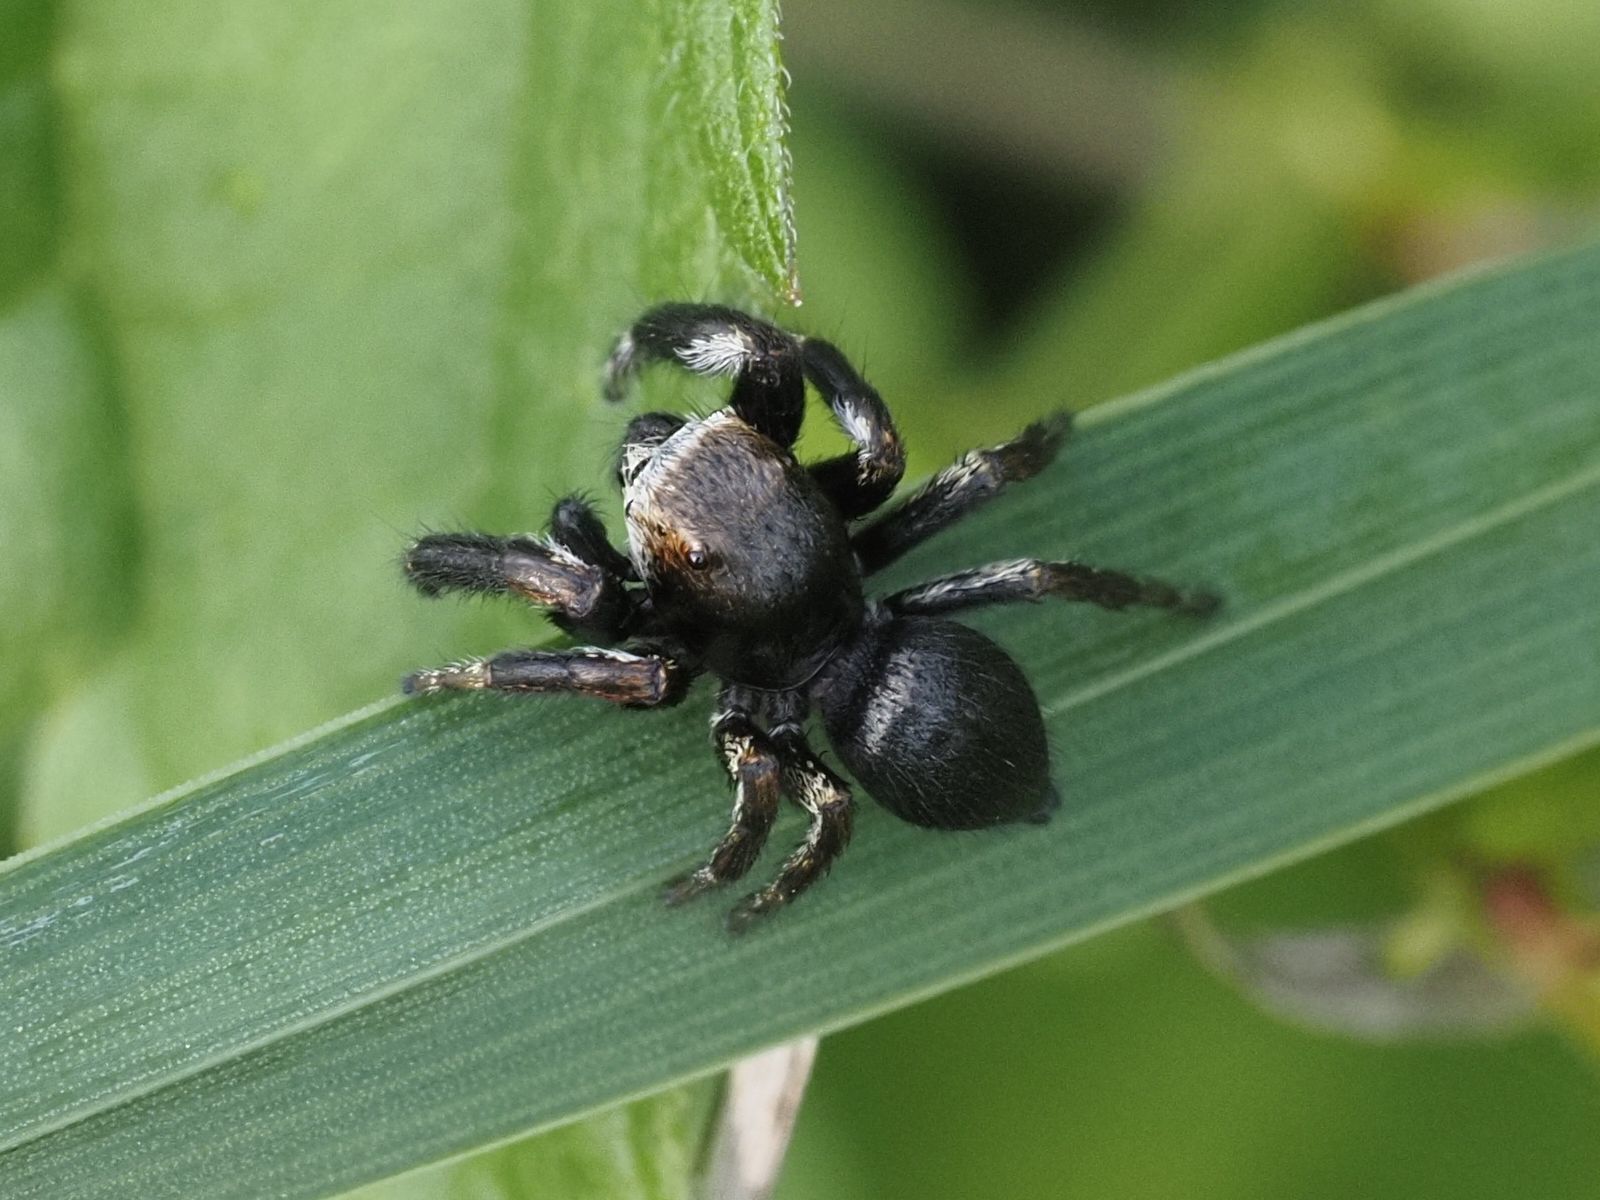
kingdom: Animalia
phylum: Arthropoda
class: Arachnida
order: Araneae
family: Salticidae
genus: Evarcha
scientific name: Evarcha arcuata
